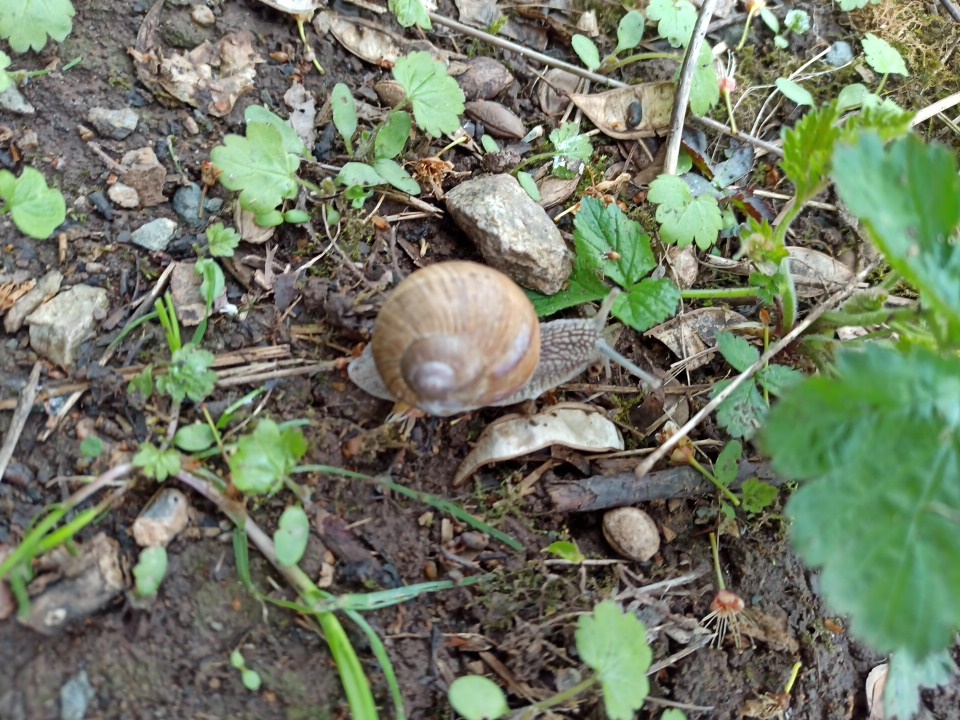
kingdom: Animalia
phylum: Mollusca
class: Gastropoda
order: Stylommatophora
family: Helicidae
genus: Helix
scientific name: Helix pomatia
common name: Roman snail
